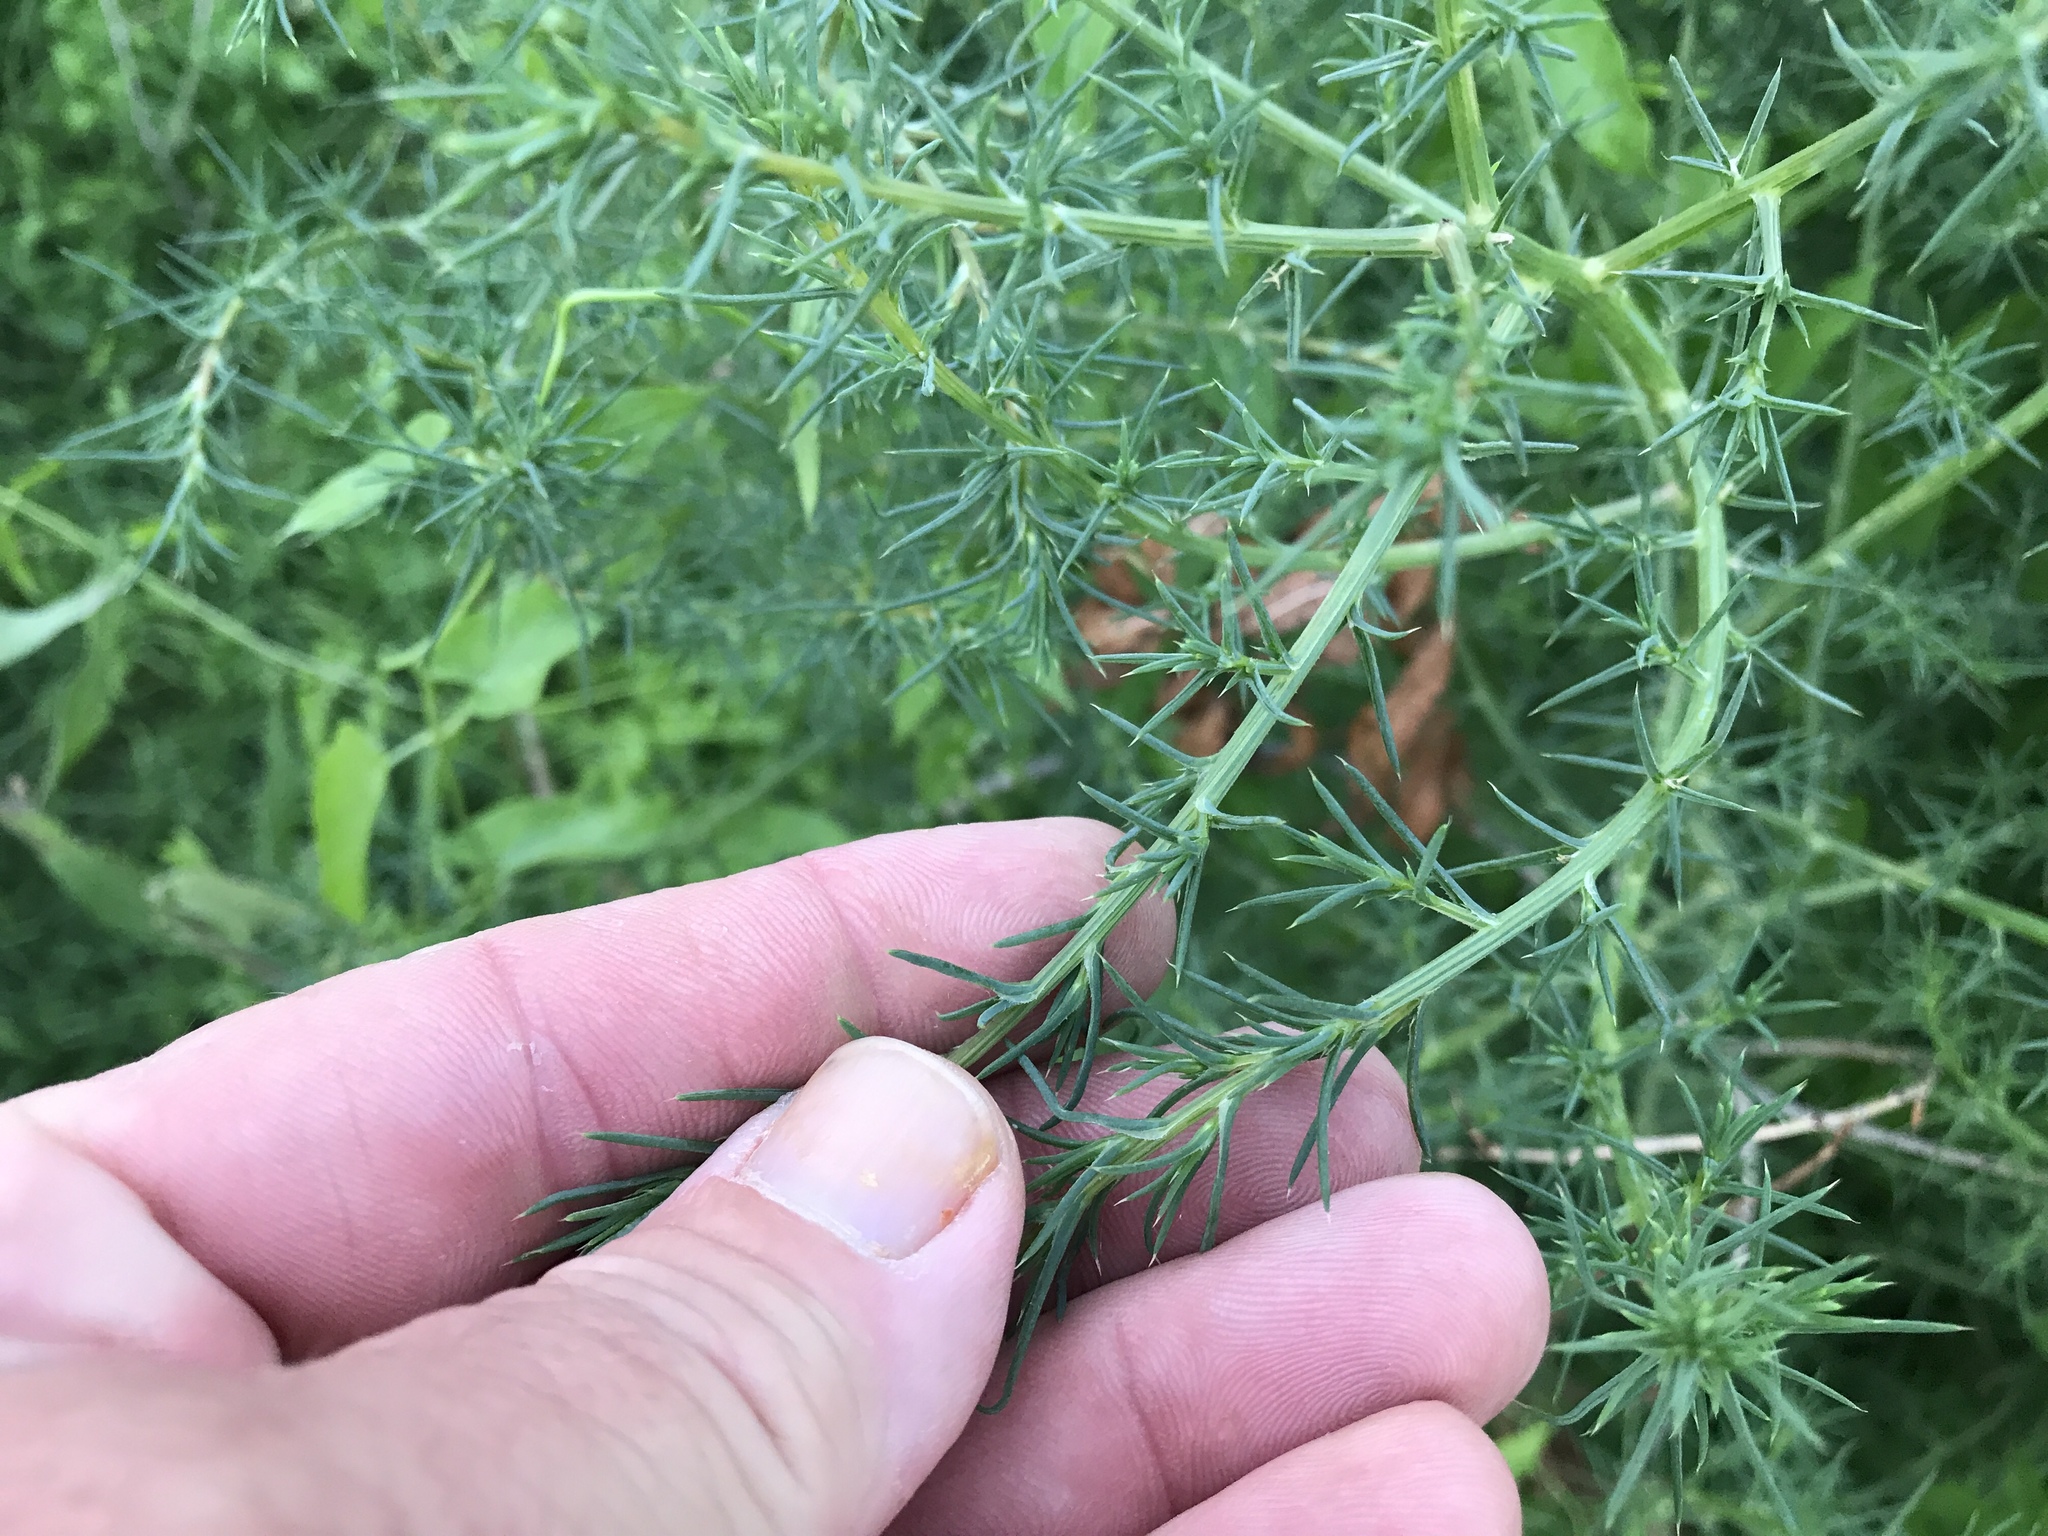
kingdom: Plantae
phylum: Tracheophyta
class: Magnoliopsida
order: Caryophyllales
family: Amaranthaceae
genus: Salsola
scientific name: Salsola tragus
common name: Prickly russian thistle
